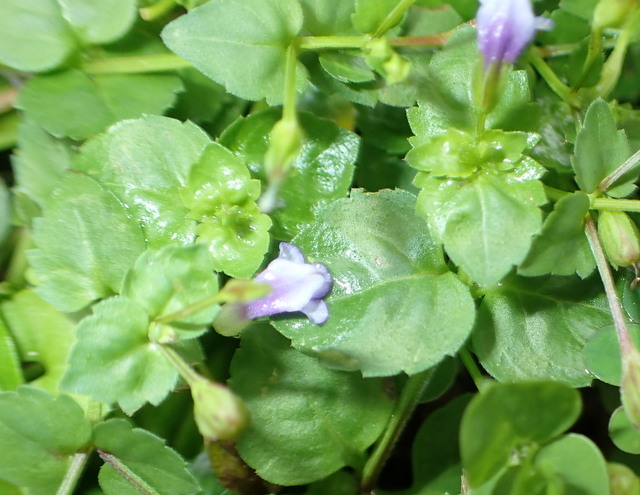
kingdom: Plantae
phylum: Tracheophyta
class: Magnoliopsida
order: Lamiales
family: Linderniaceae
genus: Torenia
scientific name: Torenia crustacea
